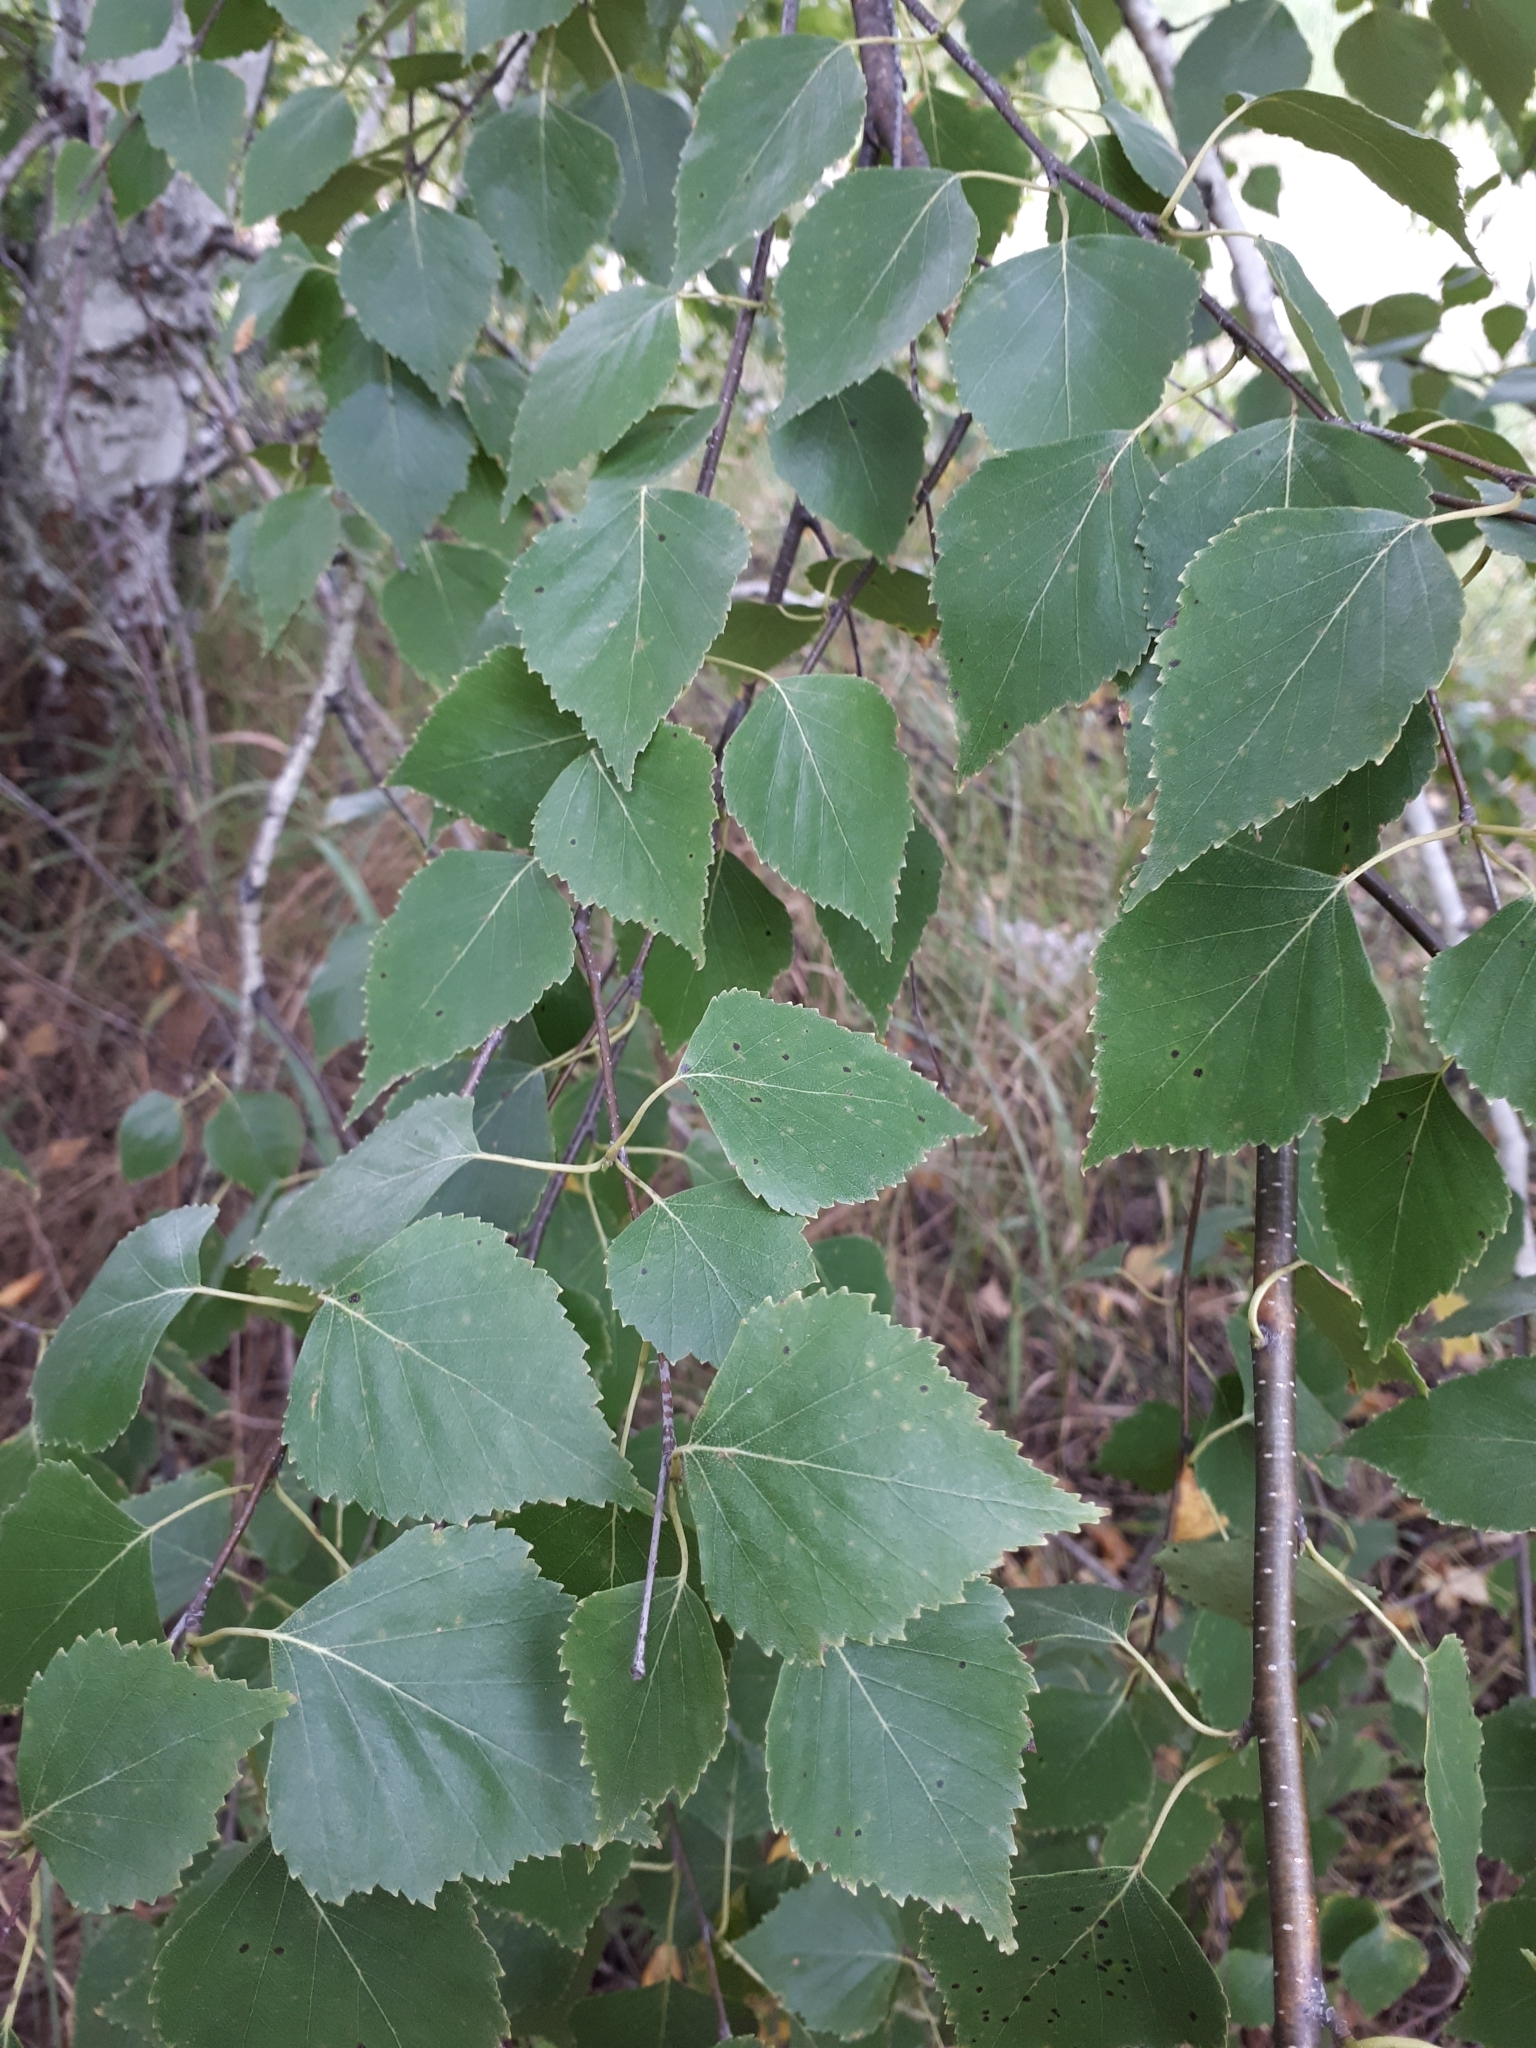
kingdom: Plantae
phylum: Tracheophyta
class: Magnoliopsida
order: Fagales
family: Betulaceae
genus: Betula
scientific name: Betula pendula
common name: Silver birch
